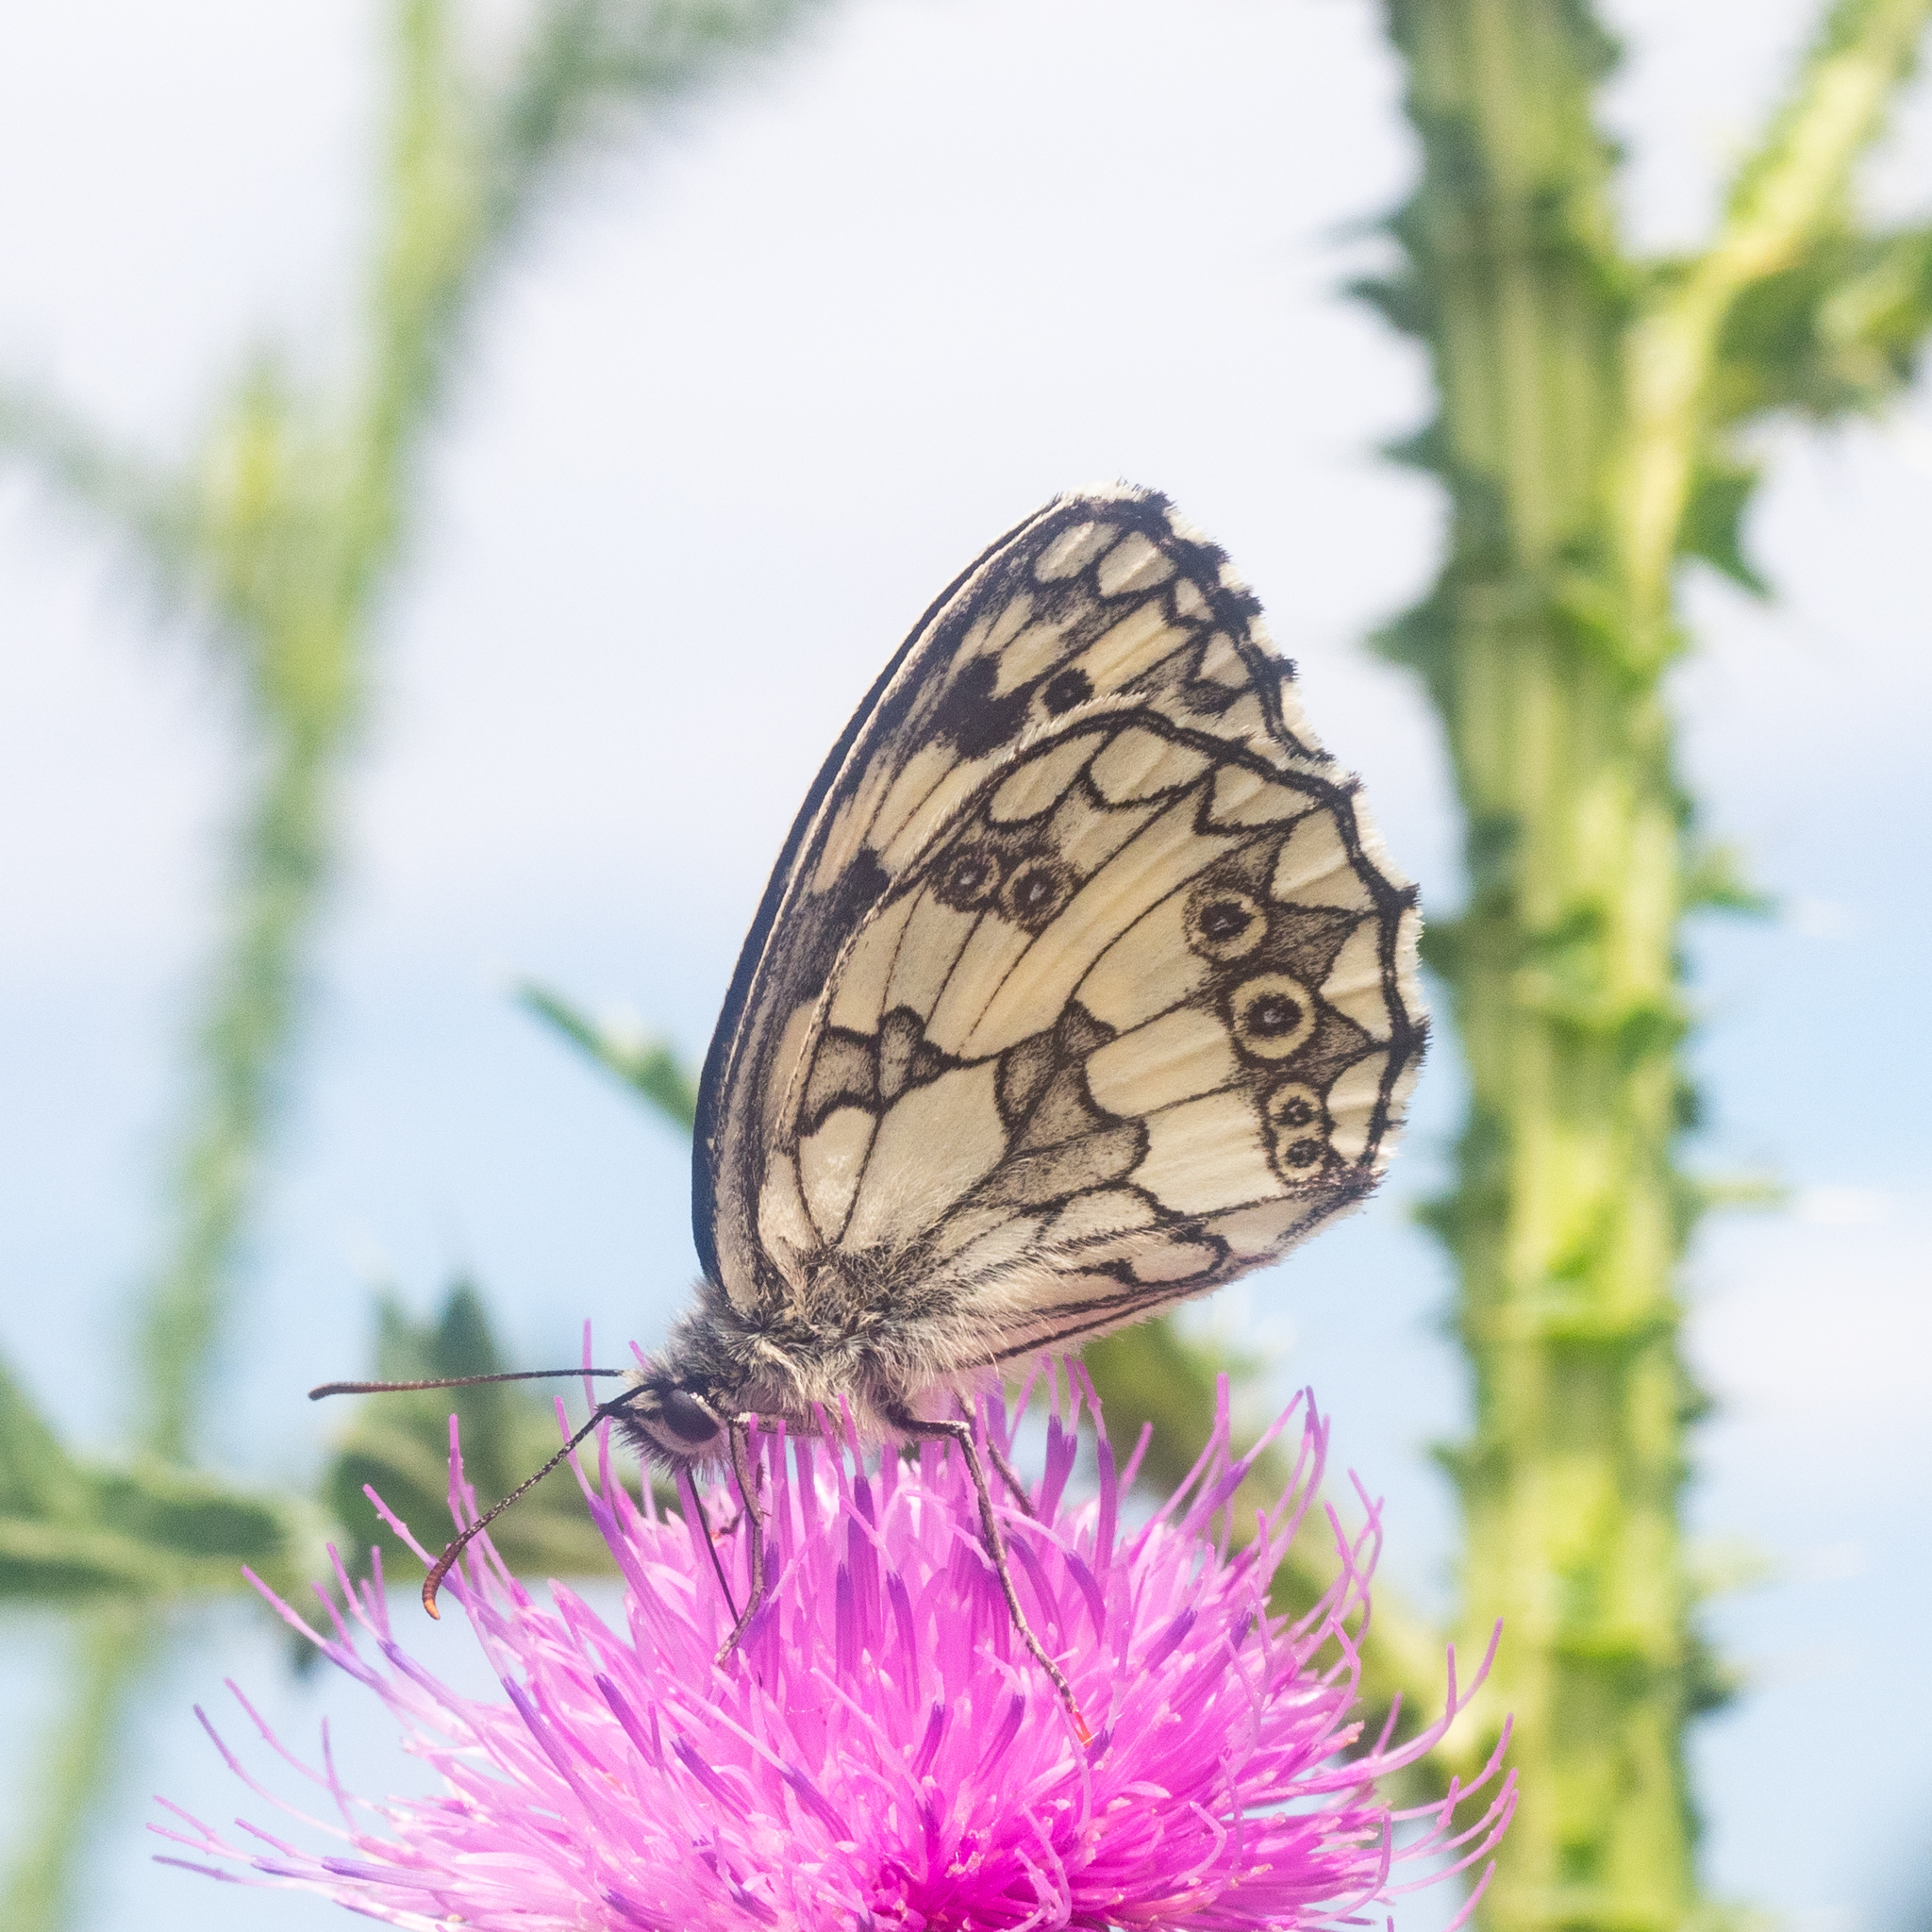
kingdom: Animalia
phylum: Arthropoda
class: Insecta
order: Lepidoptera
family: Nymphalidae
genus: Melanargia
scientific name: Melanargia galathea
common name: Marbled white
